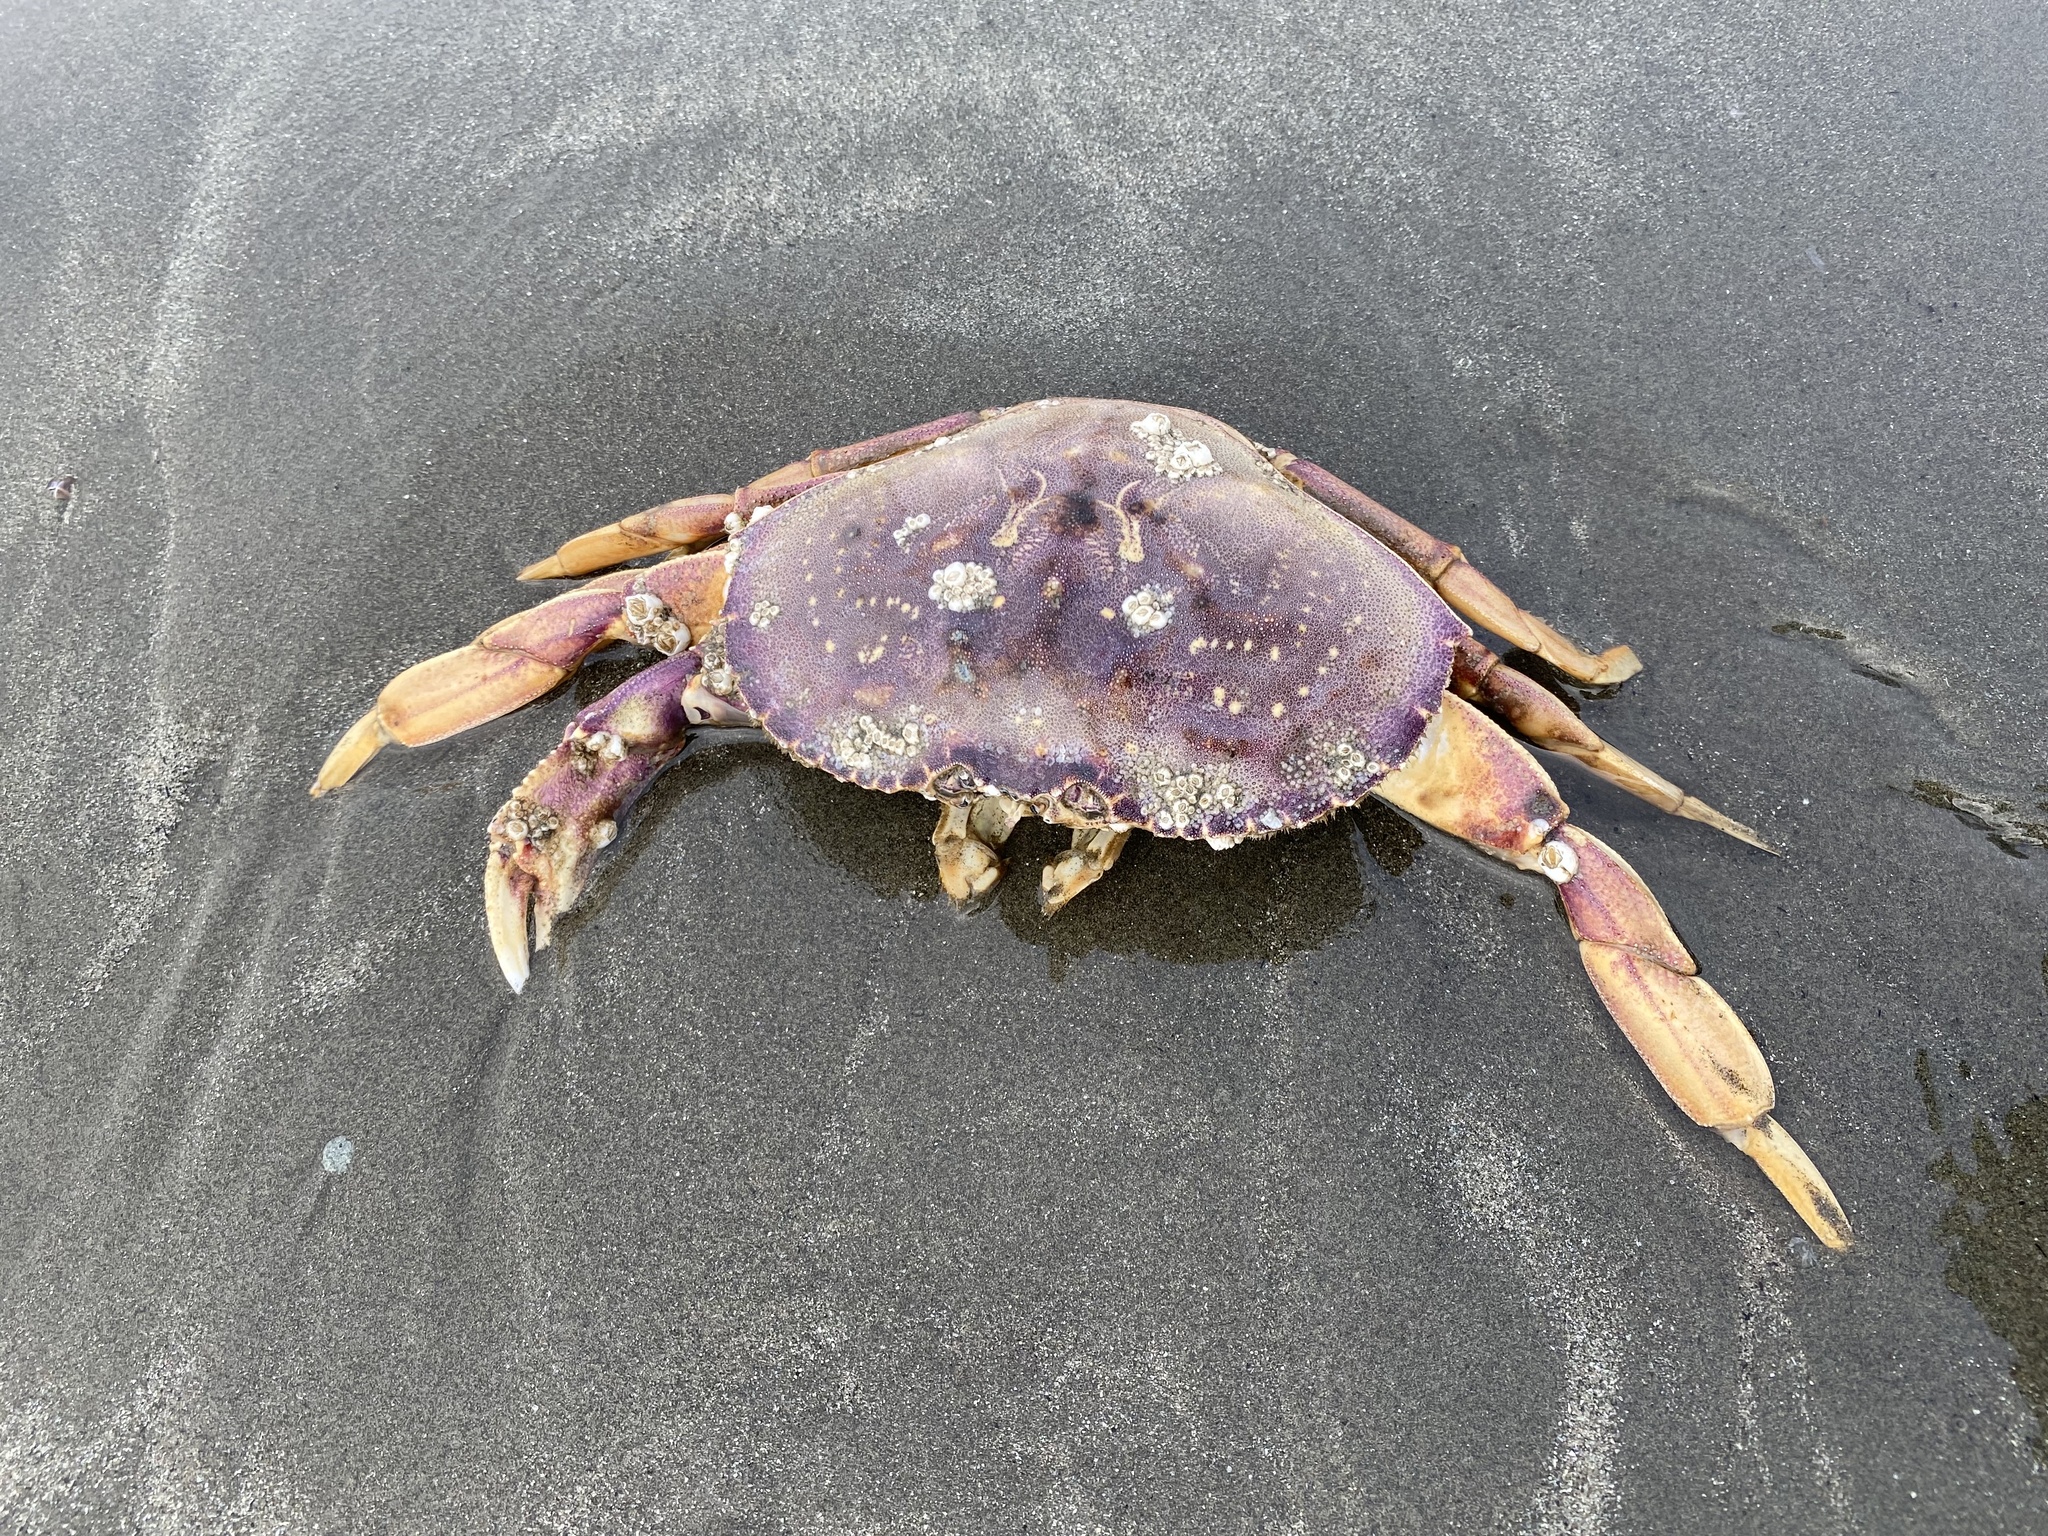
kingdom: Animalia
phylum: Arthropoda
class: Malacostraca
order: Decapoda
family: Cancridae
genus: Metacarcinus
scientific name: Metacarcinus magister
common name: Californian crab
